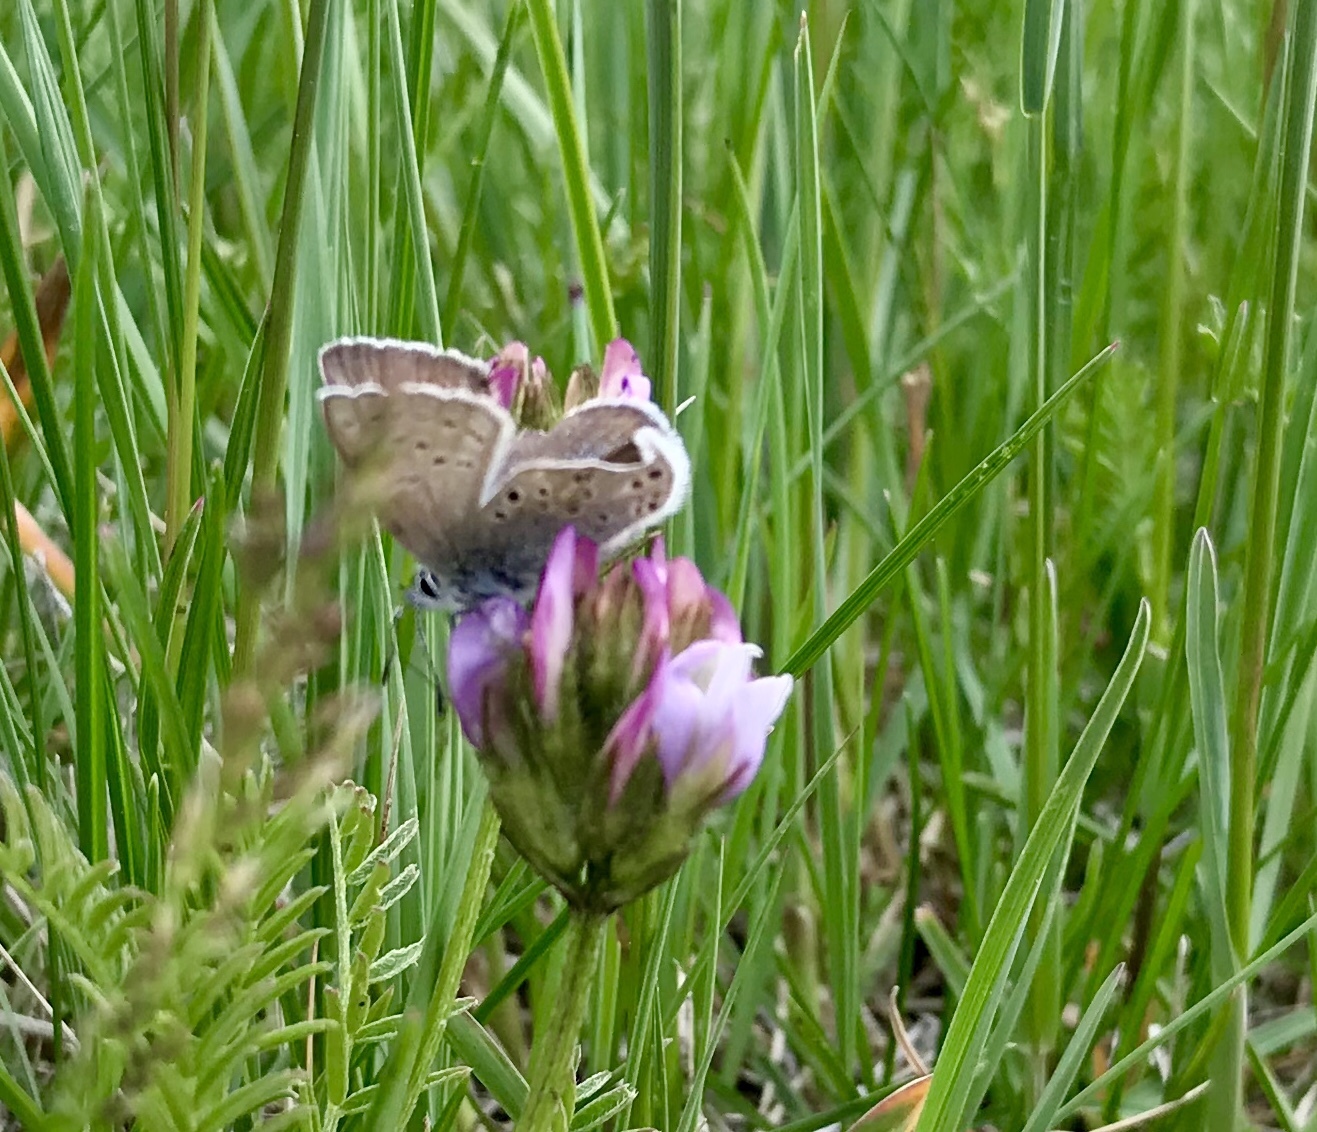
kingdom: Animalia
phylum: Arthropoda
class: Insecta
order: Lepidoptera
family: Lycaenidae
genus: Icaricia
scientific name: Icaricia saepiolus
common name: Greenish blue
